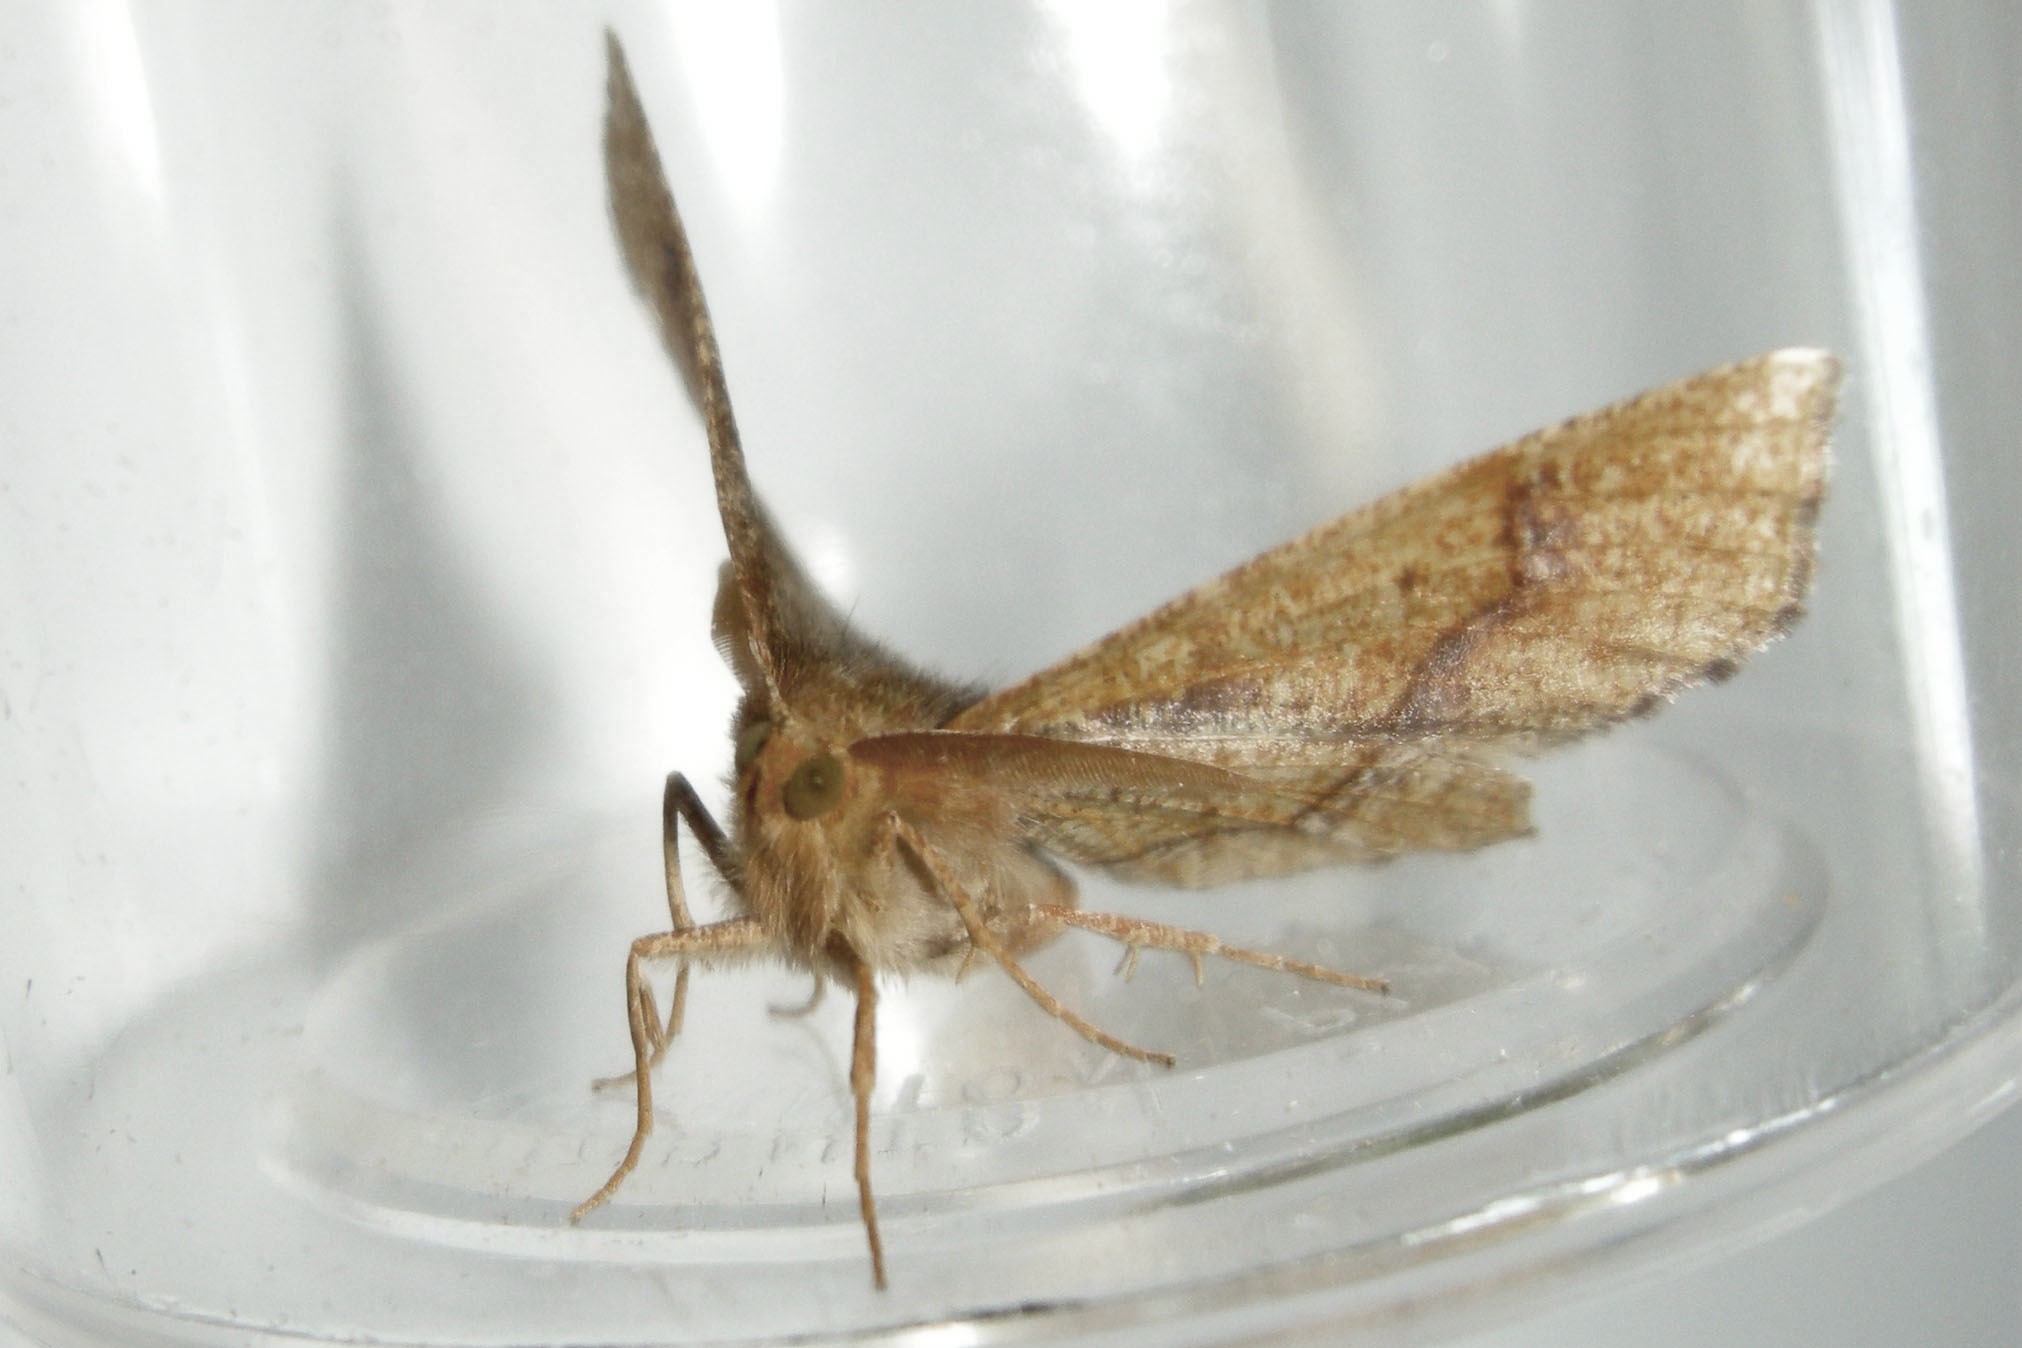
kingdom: Animalia
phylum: Arthropoda
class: Insecta
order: Lepidoptera
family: Geometridae
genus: Metarranthis
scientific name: Metarranthis hypochraria
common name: Common metarranthis
